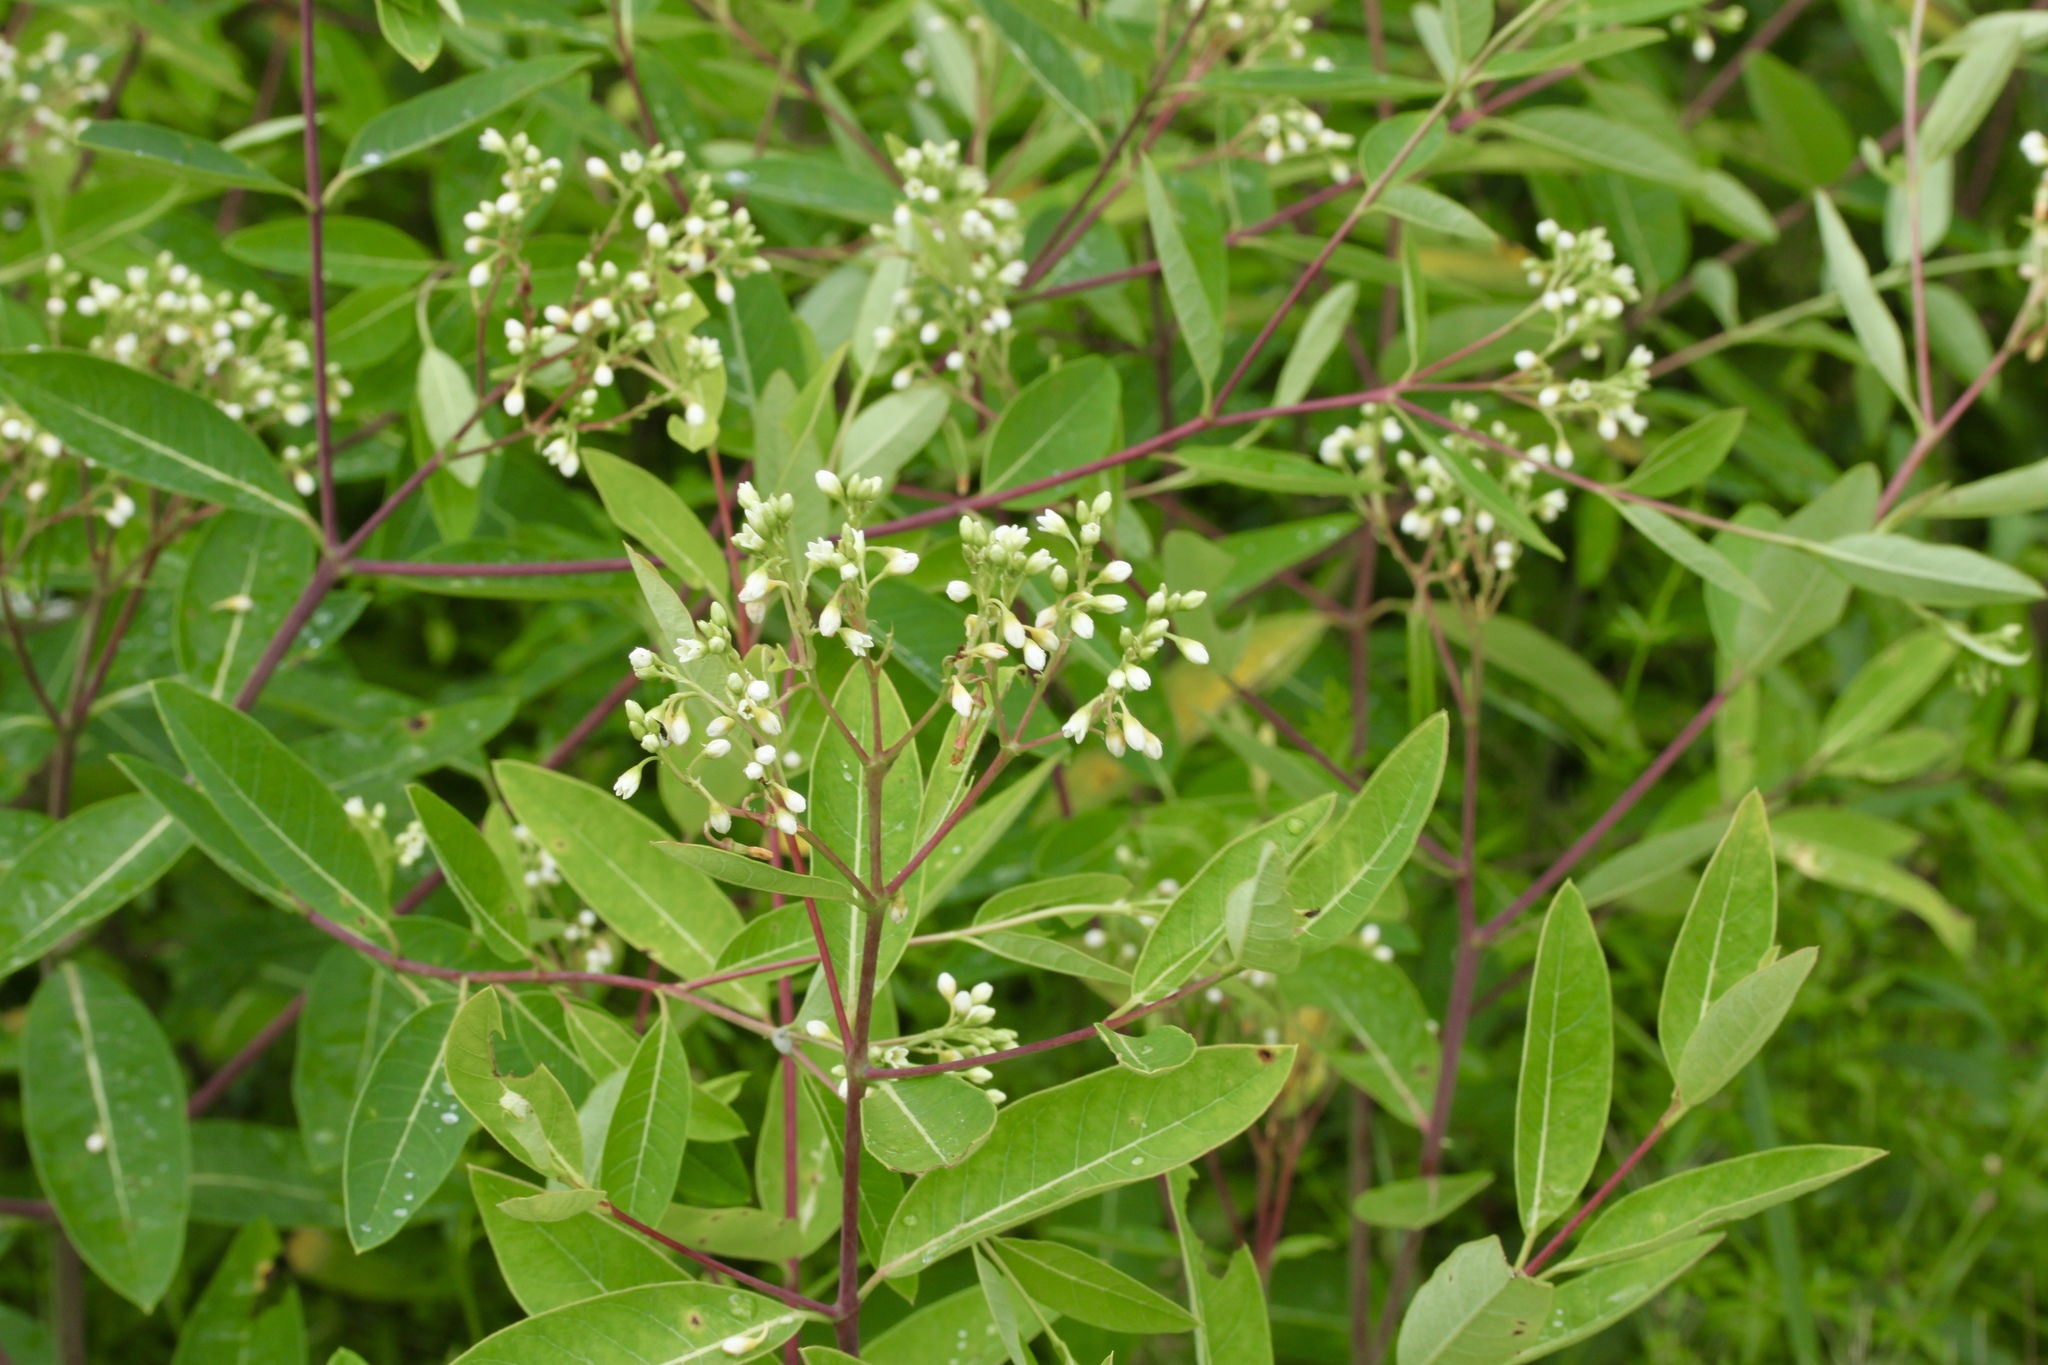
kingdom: Plantae
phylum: Tracheophyta
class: Magnoliopsida
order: Gentianales
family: Apocynaceae
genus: Apocynum
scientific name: Apocynum cannabinum
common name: Hemp dogbane
